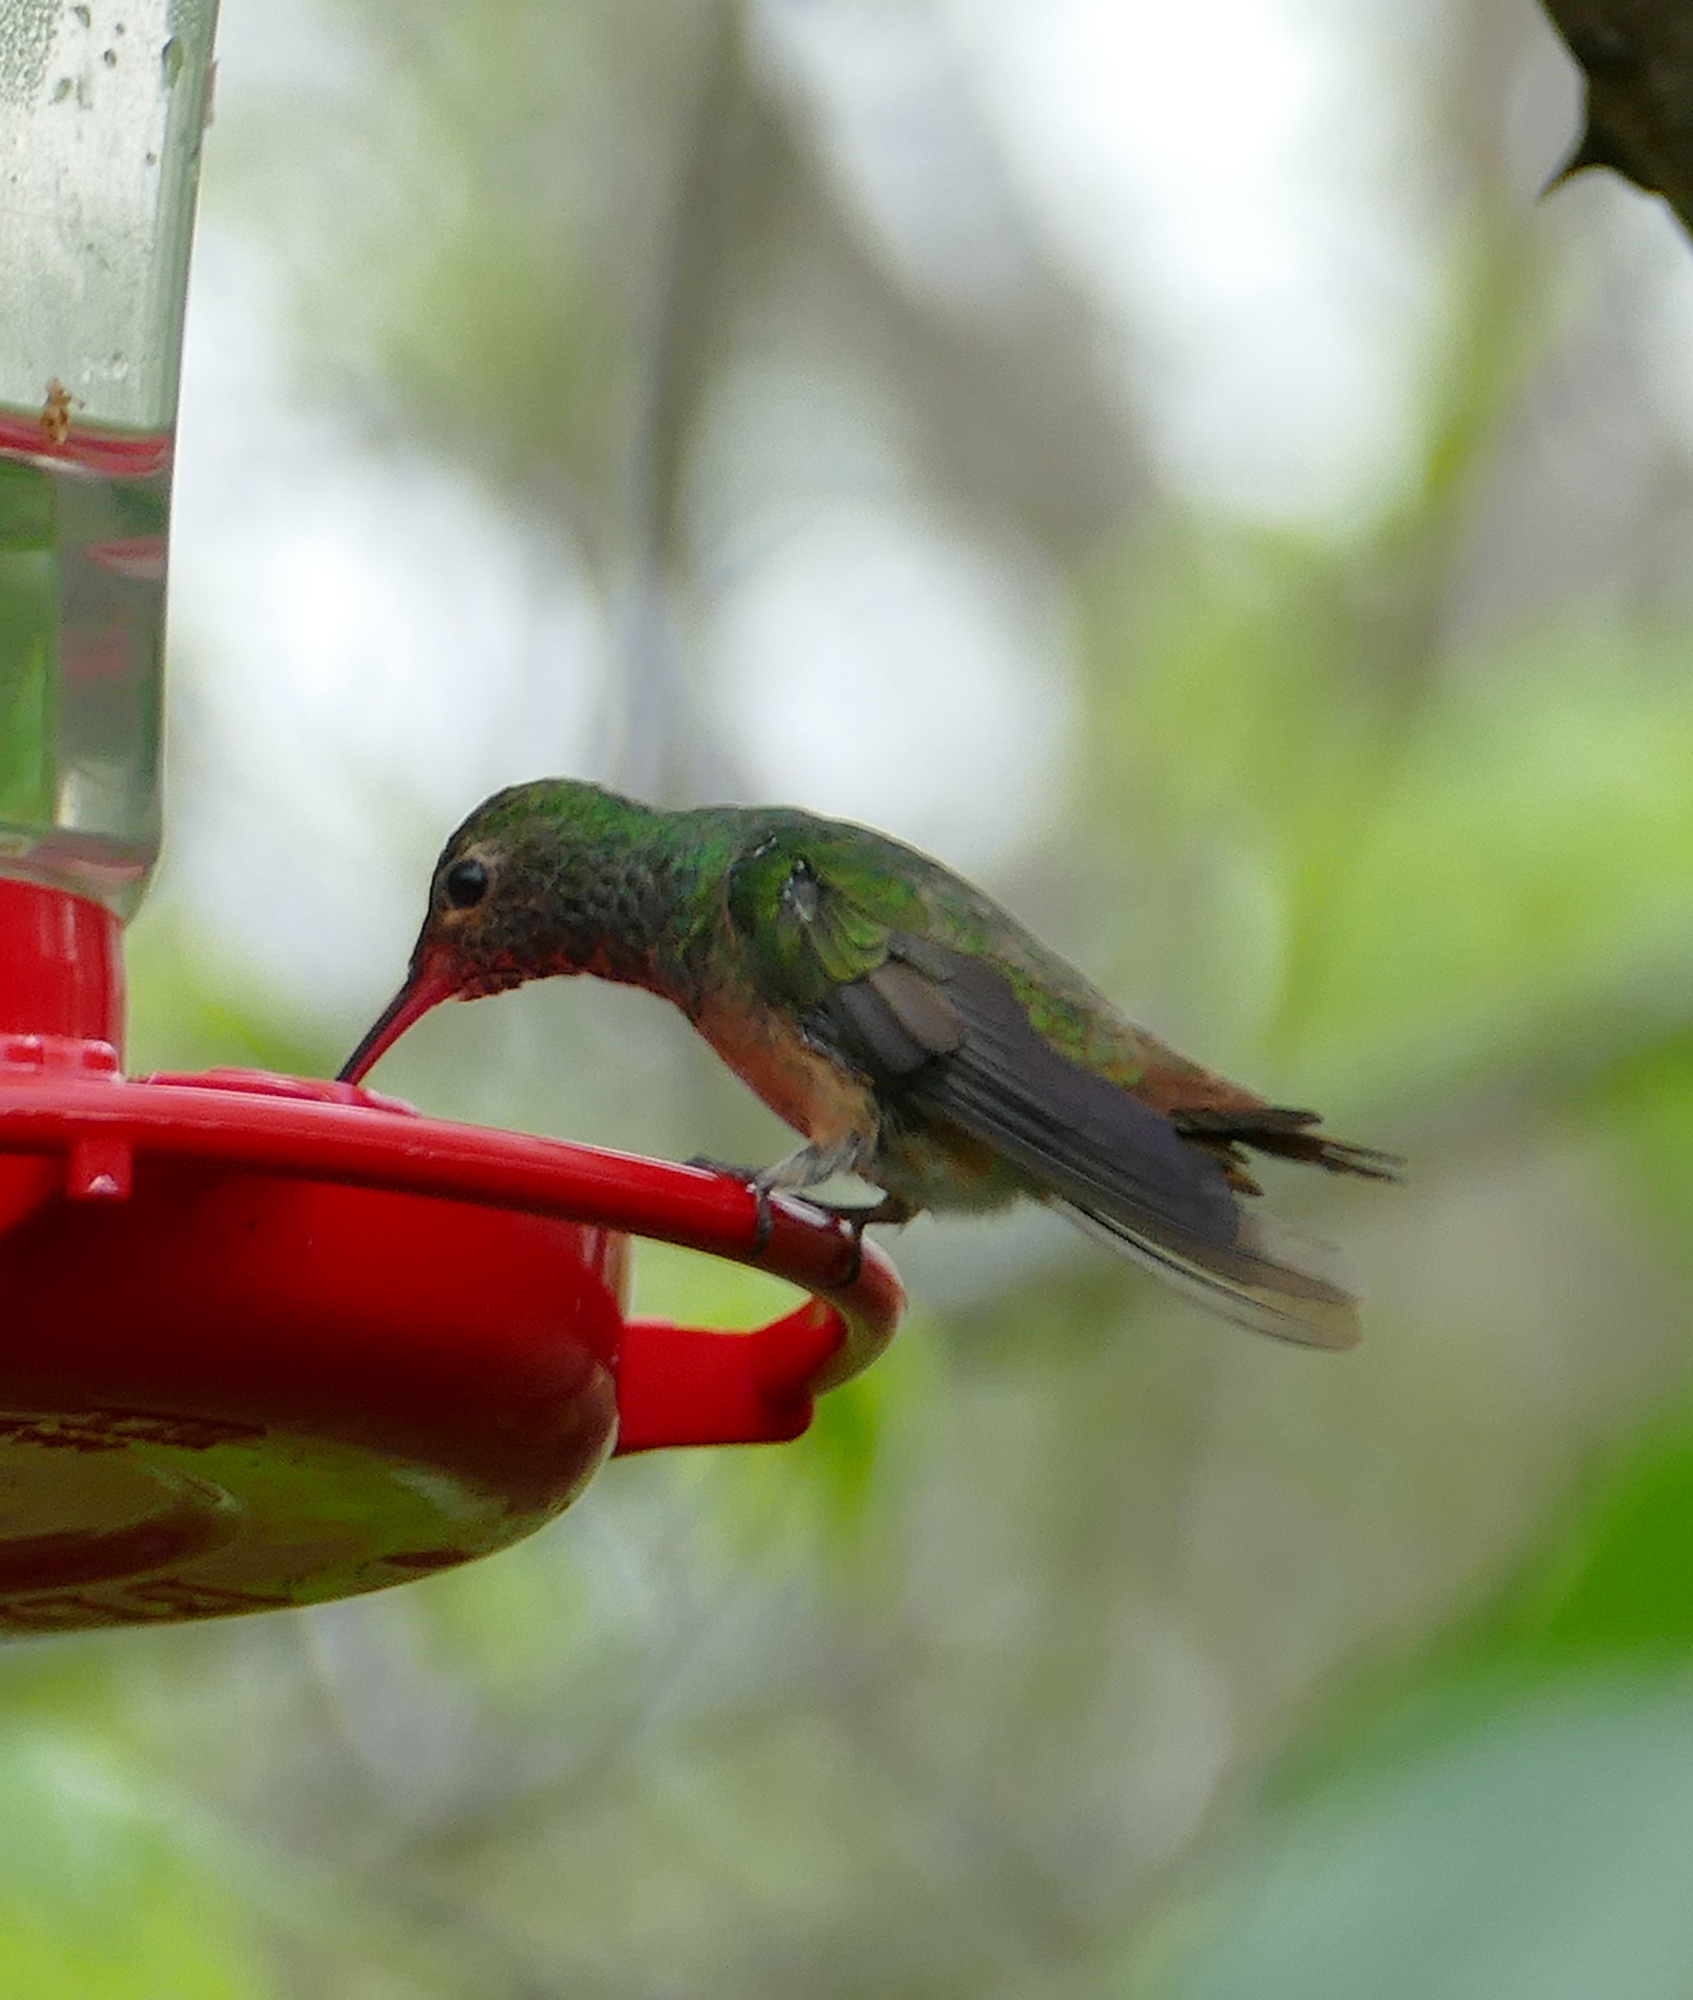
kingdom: Animalia
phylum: Chordata
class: Aves
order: Apodiformes
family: Trochilidae
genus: Amazilia
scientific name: Amazilia yucatanensis
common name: Buff-bellied hummingbird
